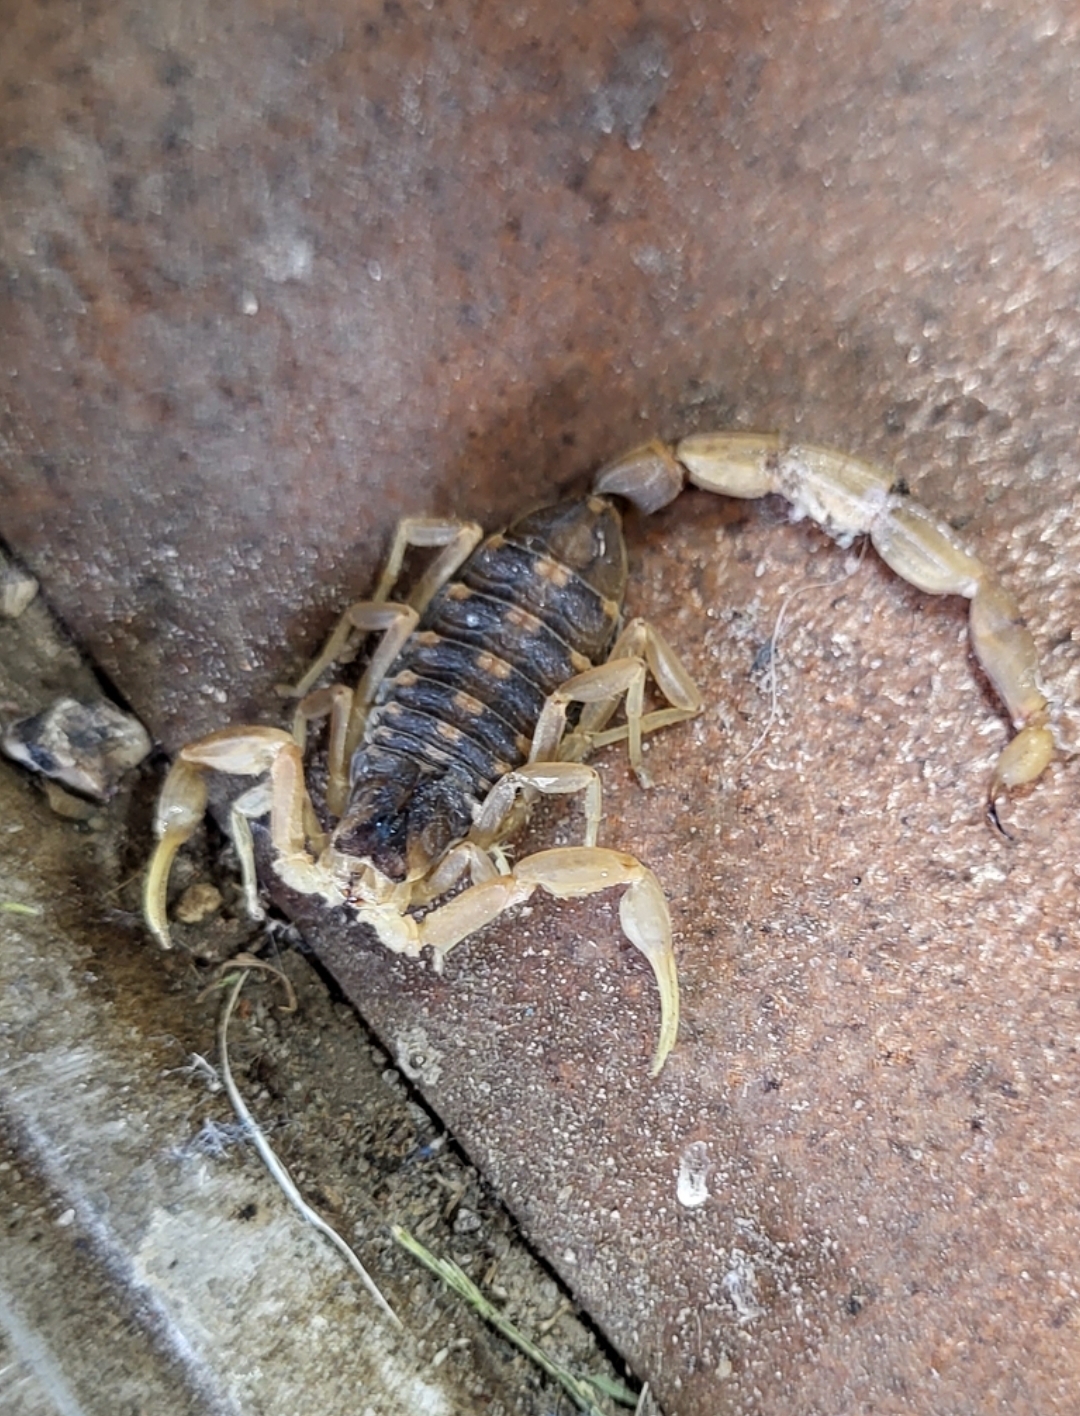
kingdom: Animalia
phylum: Arthropoda
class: Arachnida
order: Scorpiones
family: Buthidae
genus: Centruroides
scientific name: Centruroides vittatus
